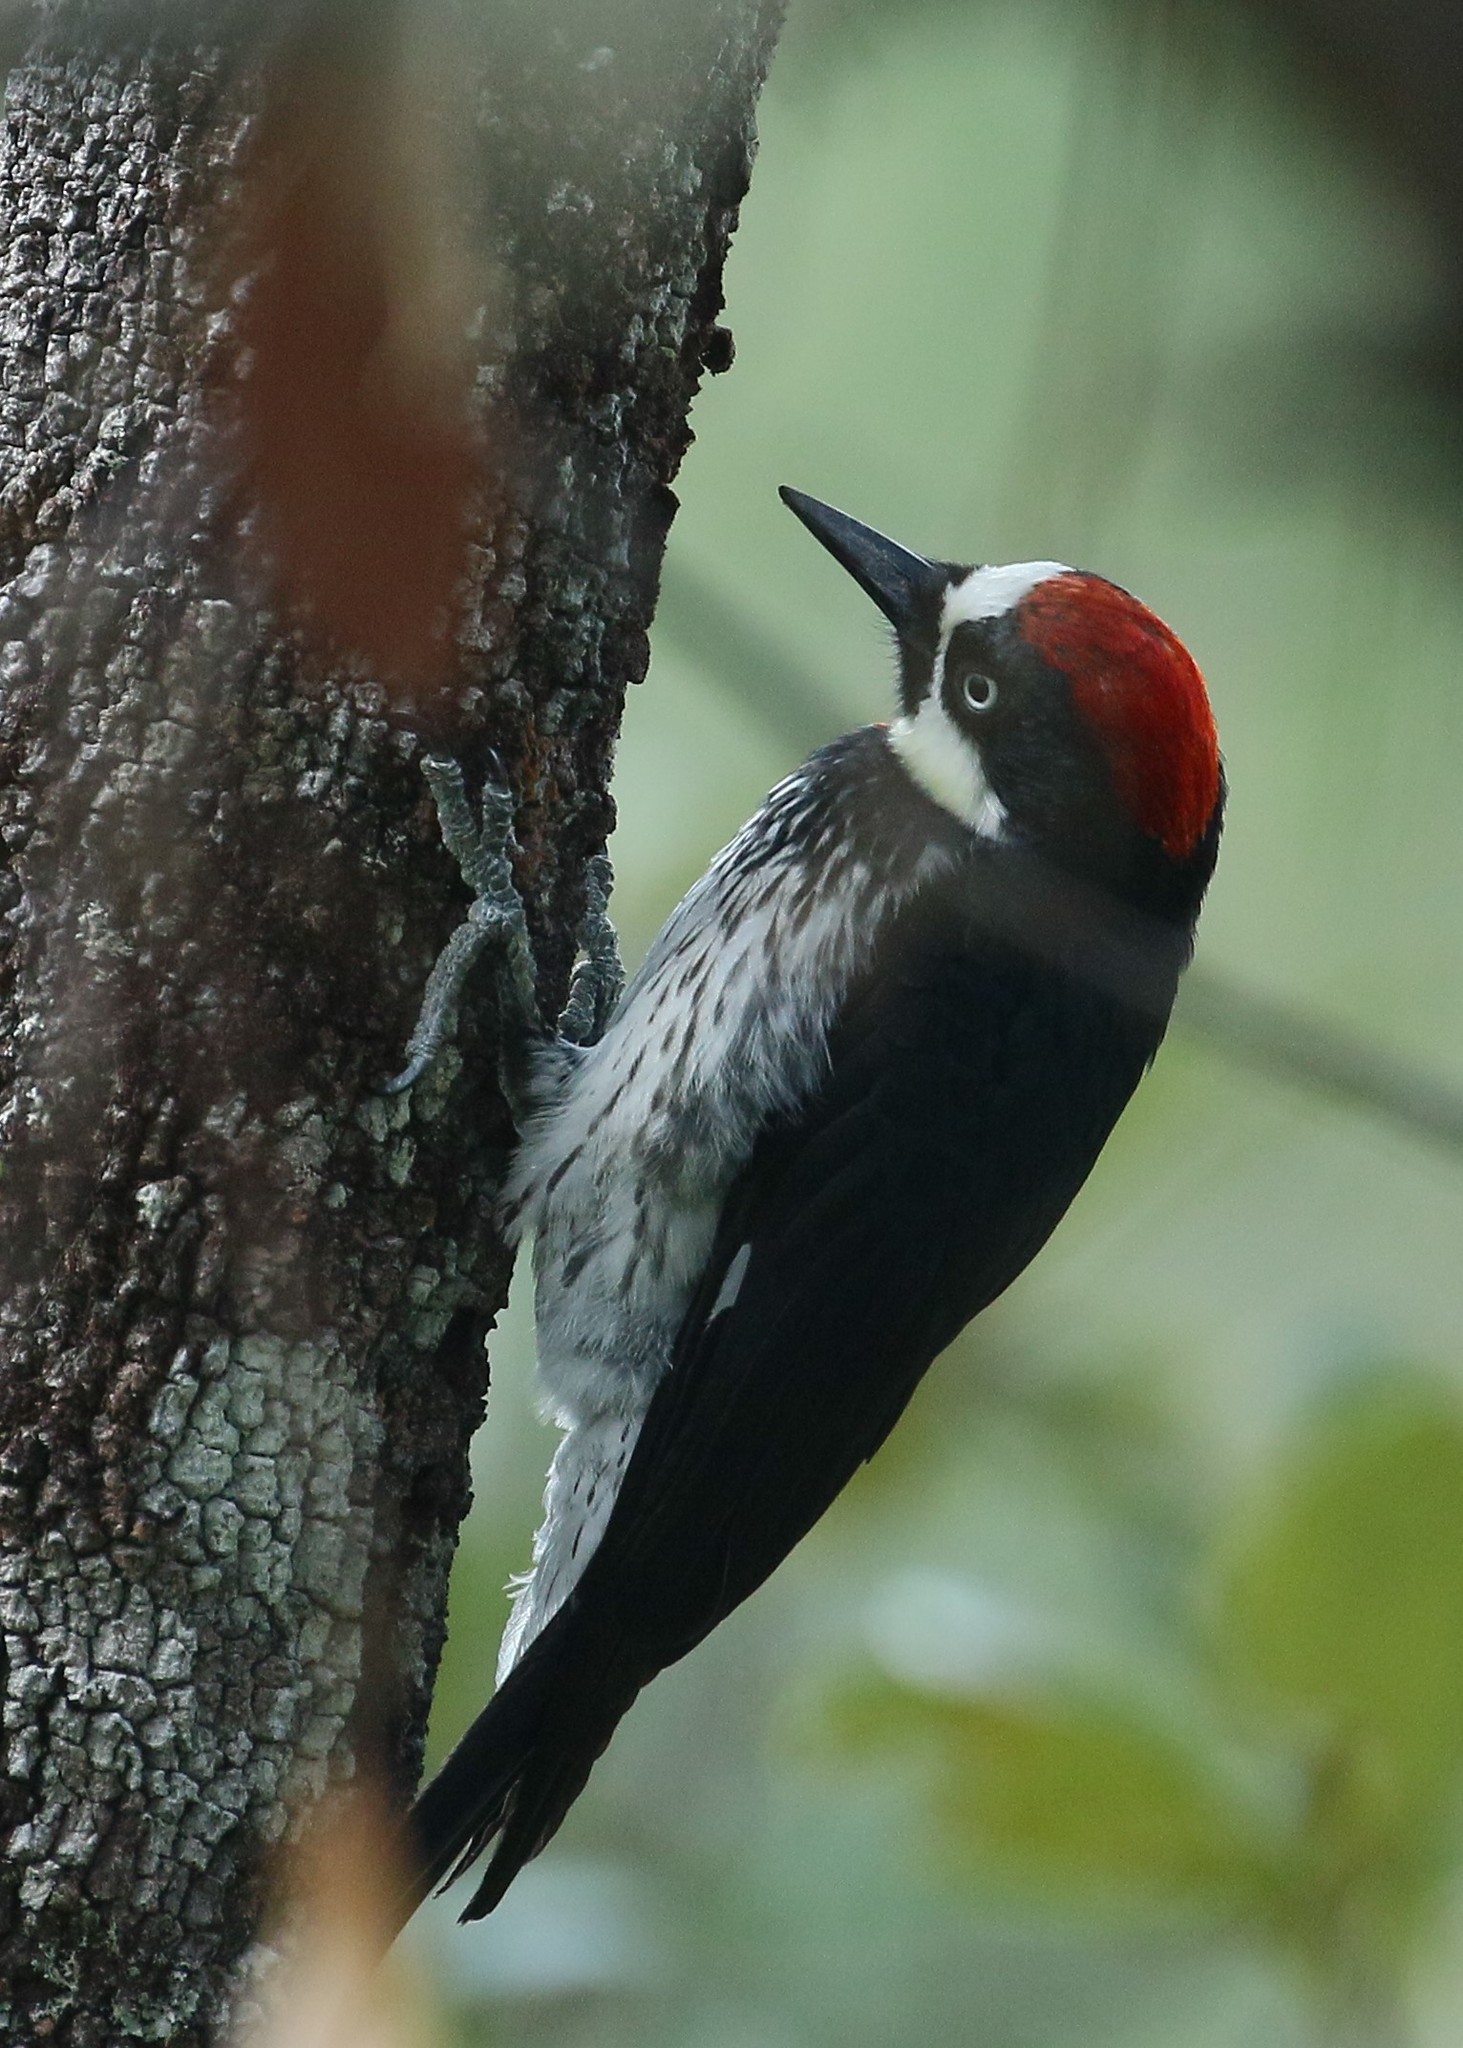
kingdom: Animalia
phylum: Chordata
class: Aves
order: Piciformes
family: Picidae
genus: Melanerpes
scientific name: Melanerpes formicivorus
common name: Acorn woodpecker
